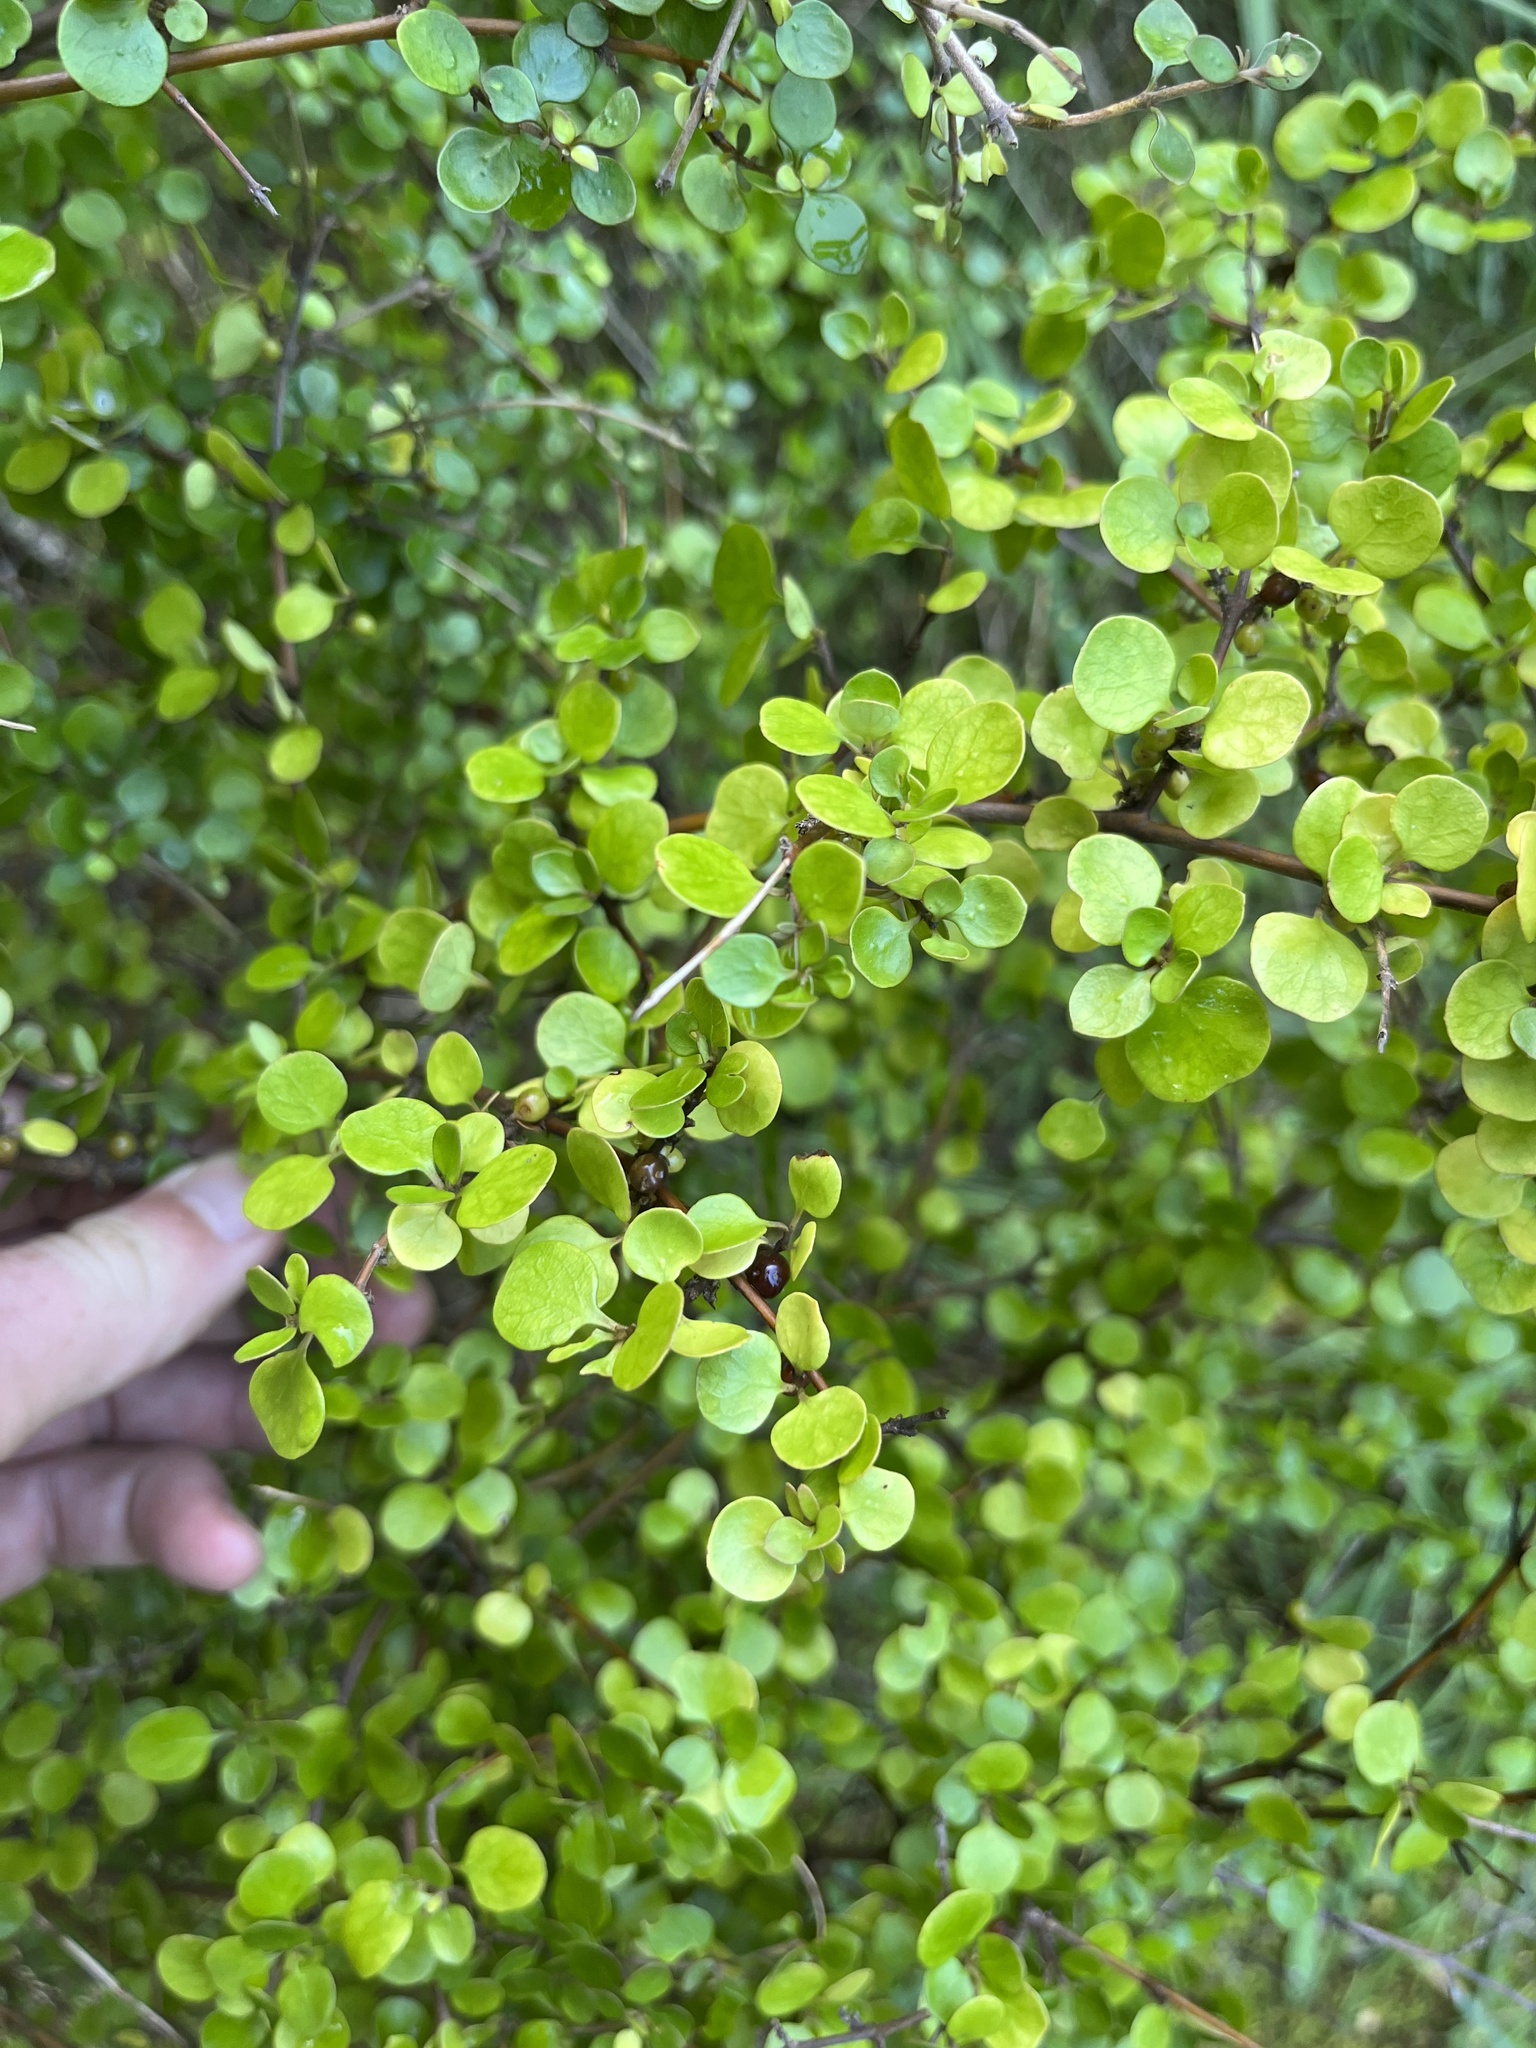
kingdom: Plantae
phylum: Tracheophyta
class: Magnoliopsida
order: Gentianales
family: Rubiaceae
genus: Coprosma
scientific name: Coprosma rhamnoides
